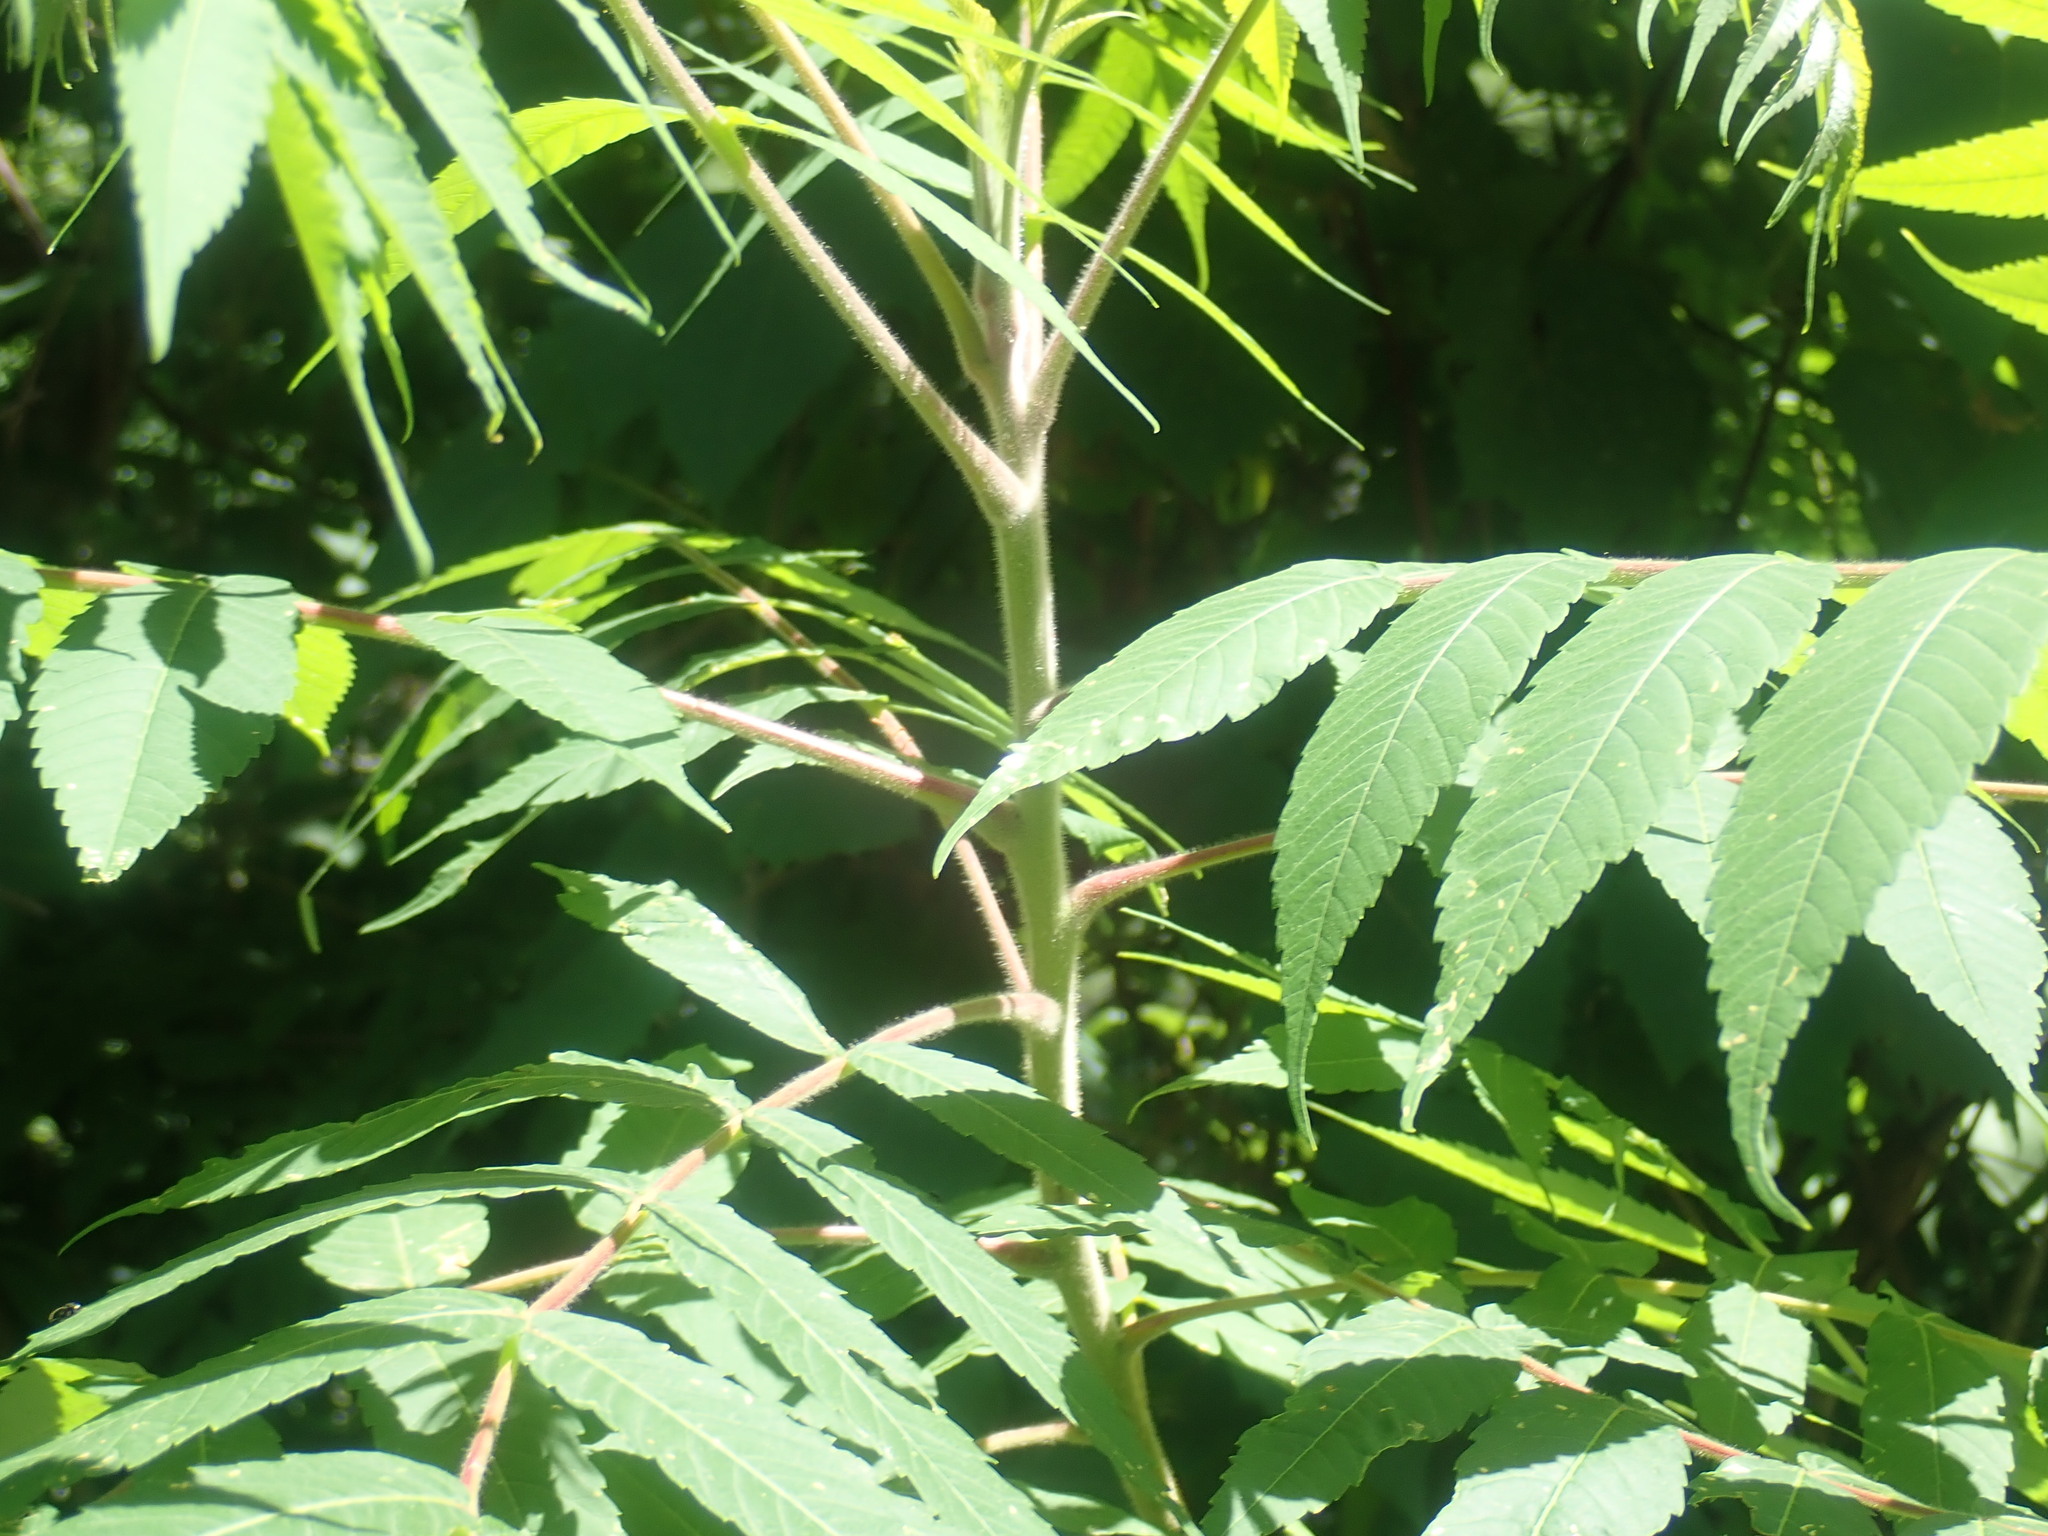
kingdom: Plantae
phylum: Tracheophyta
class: Magnoliopsida
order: Sapindales
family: Anacardiaceae
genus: Rhus
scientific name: Rhus typhina
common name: Staghorn sumac
